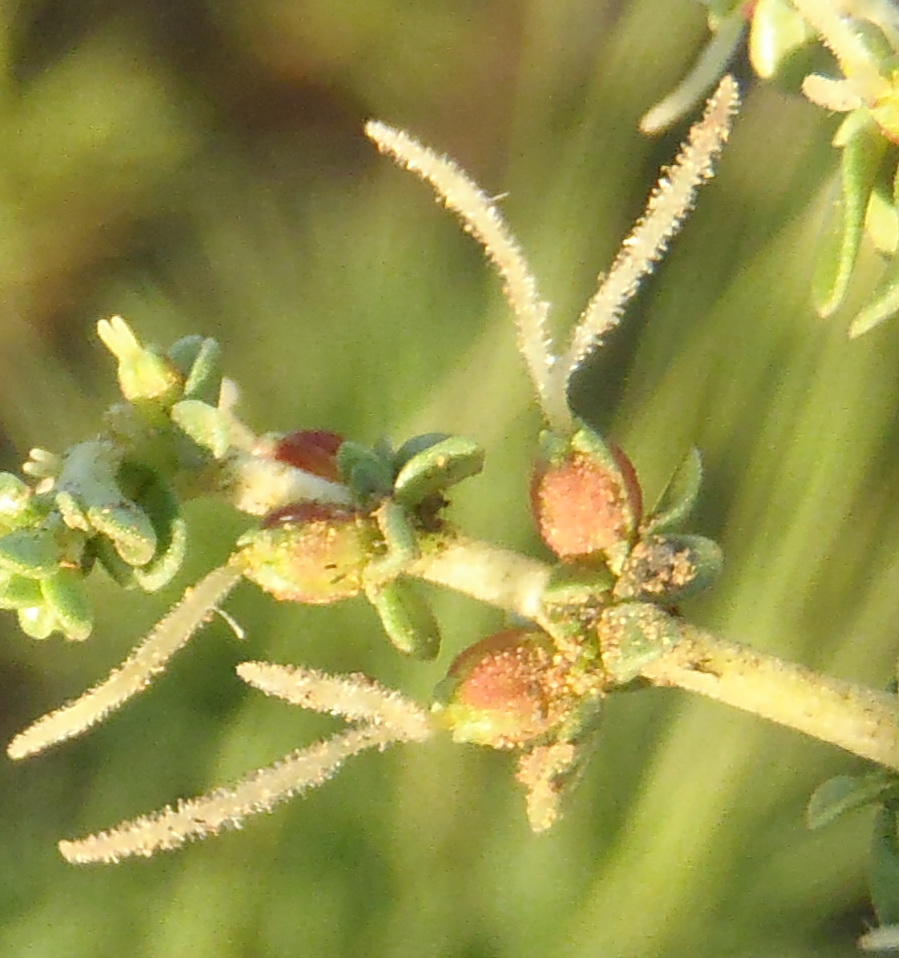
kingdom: Plantae
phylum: Tracheophyta
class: Magnoliopsida
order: Gentianales
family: Rubiaceae
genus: Nenax
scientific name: Nenax microphylla
